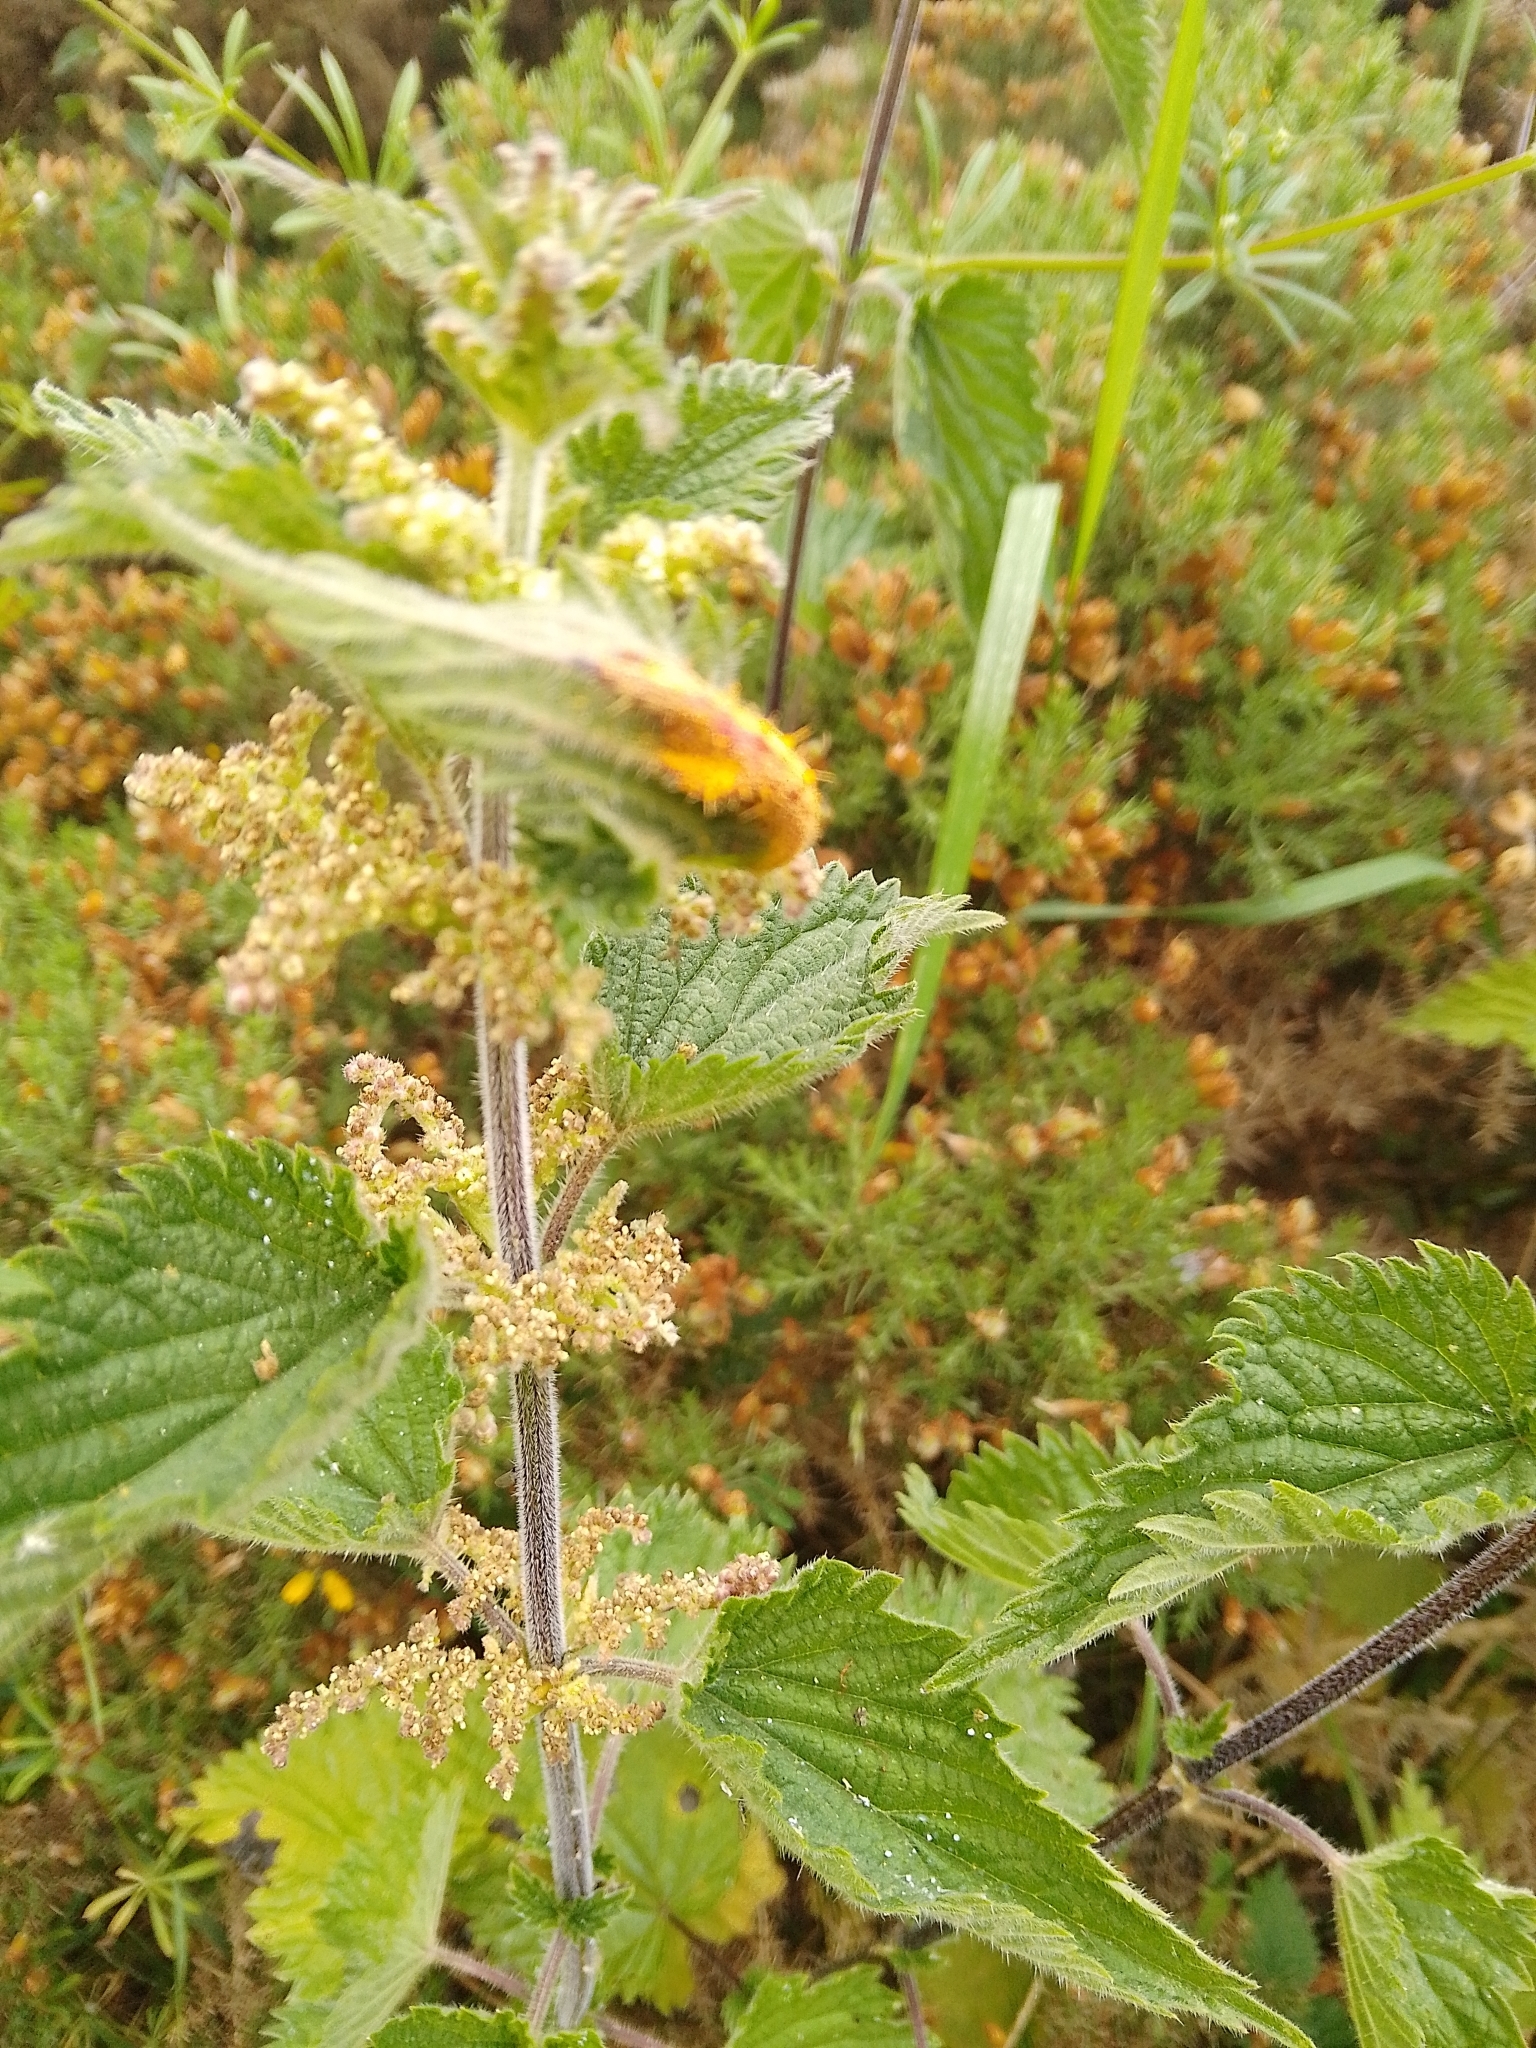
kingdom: Fungi
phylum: Basidiomycota
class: Pucciniomycetes
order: Pucciniales
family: Pucciniaceae
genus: Puccinia
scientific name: Puccinia urticata
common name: Nettle clustercup rust fungus
